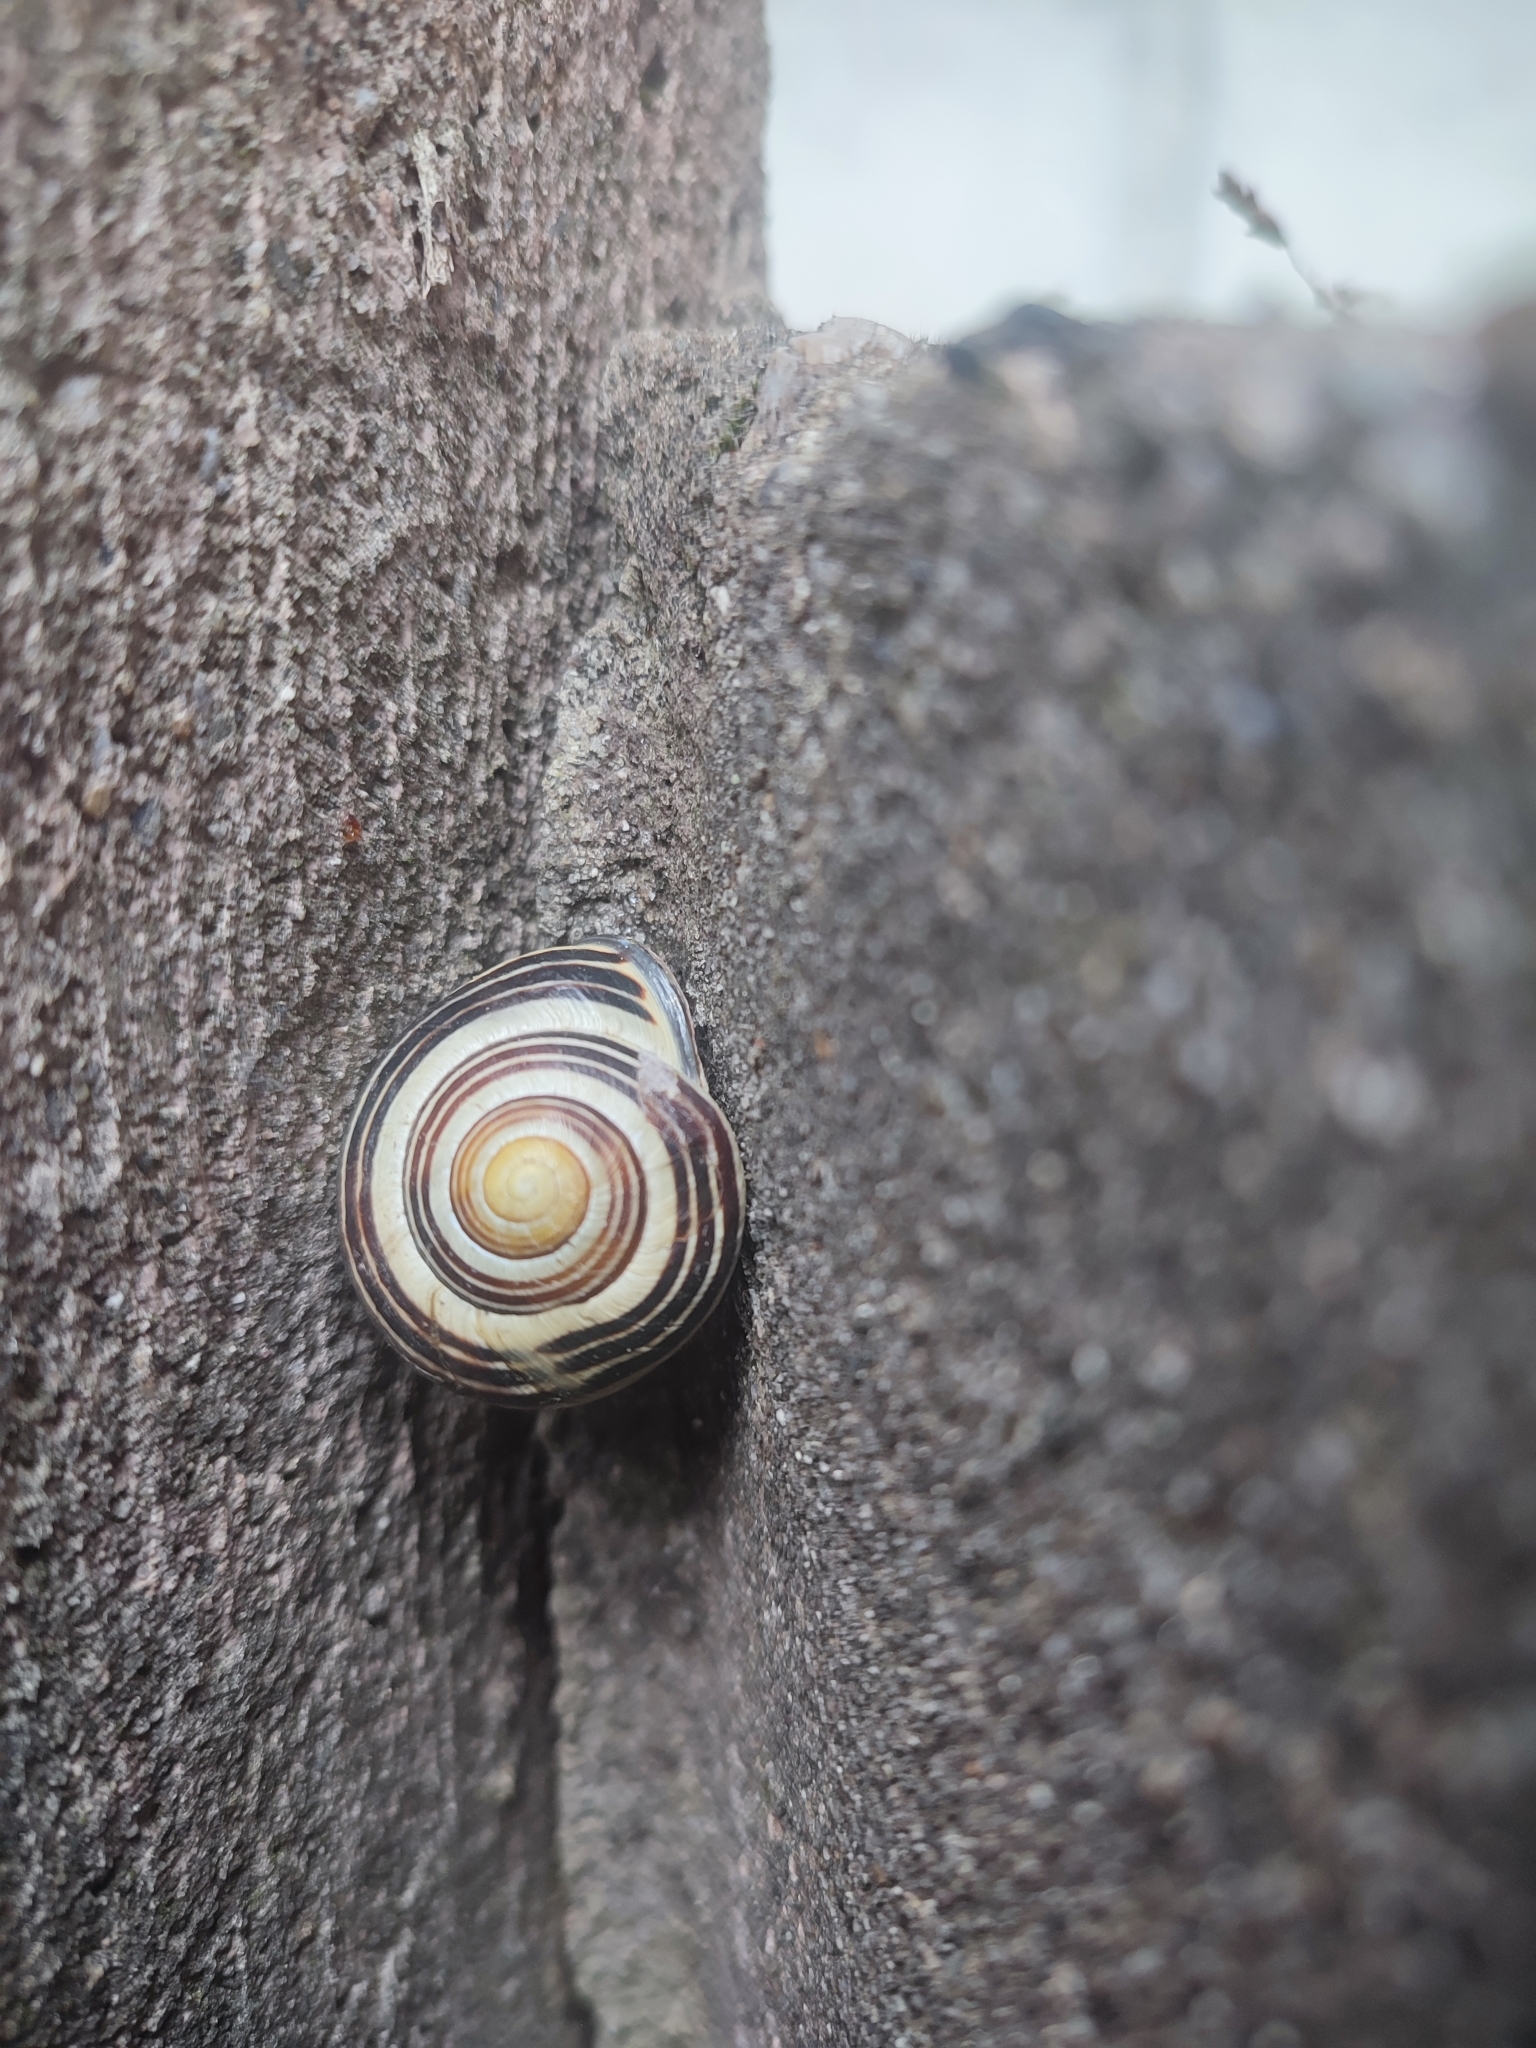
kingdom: Animalia
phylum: Mollusca
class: Gastropoda
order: Stylommatophora
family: Helicidae
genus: Cepaea
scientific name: Cepaea nemoralis
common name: Grovesnail
